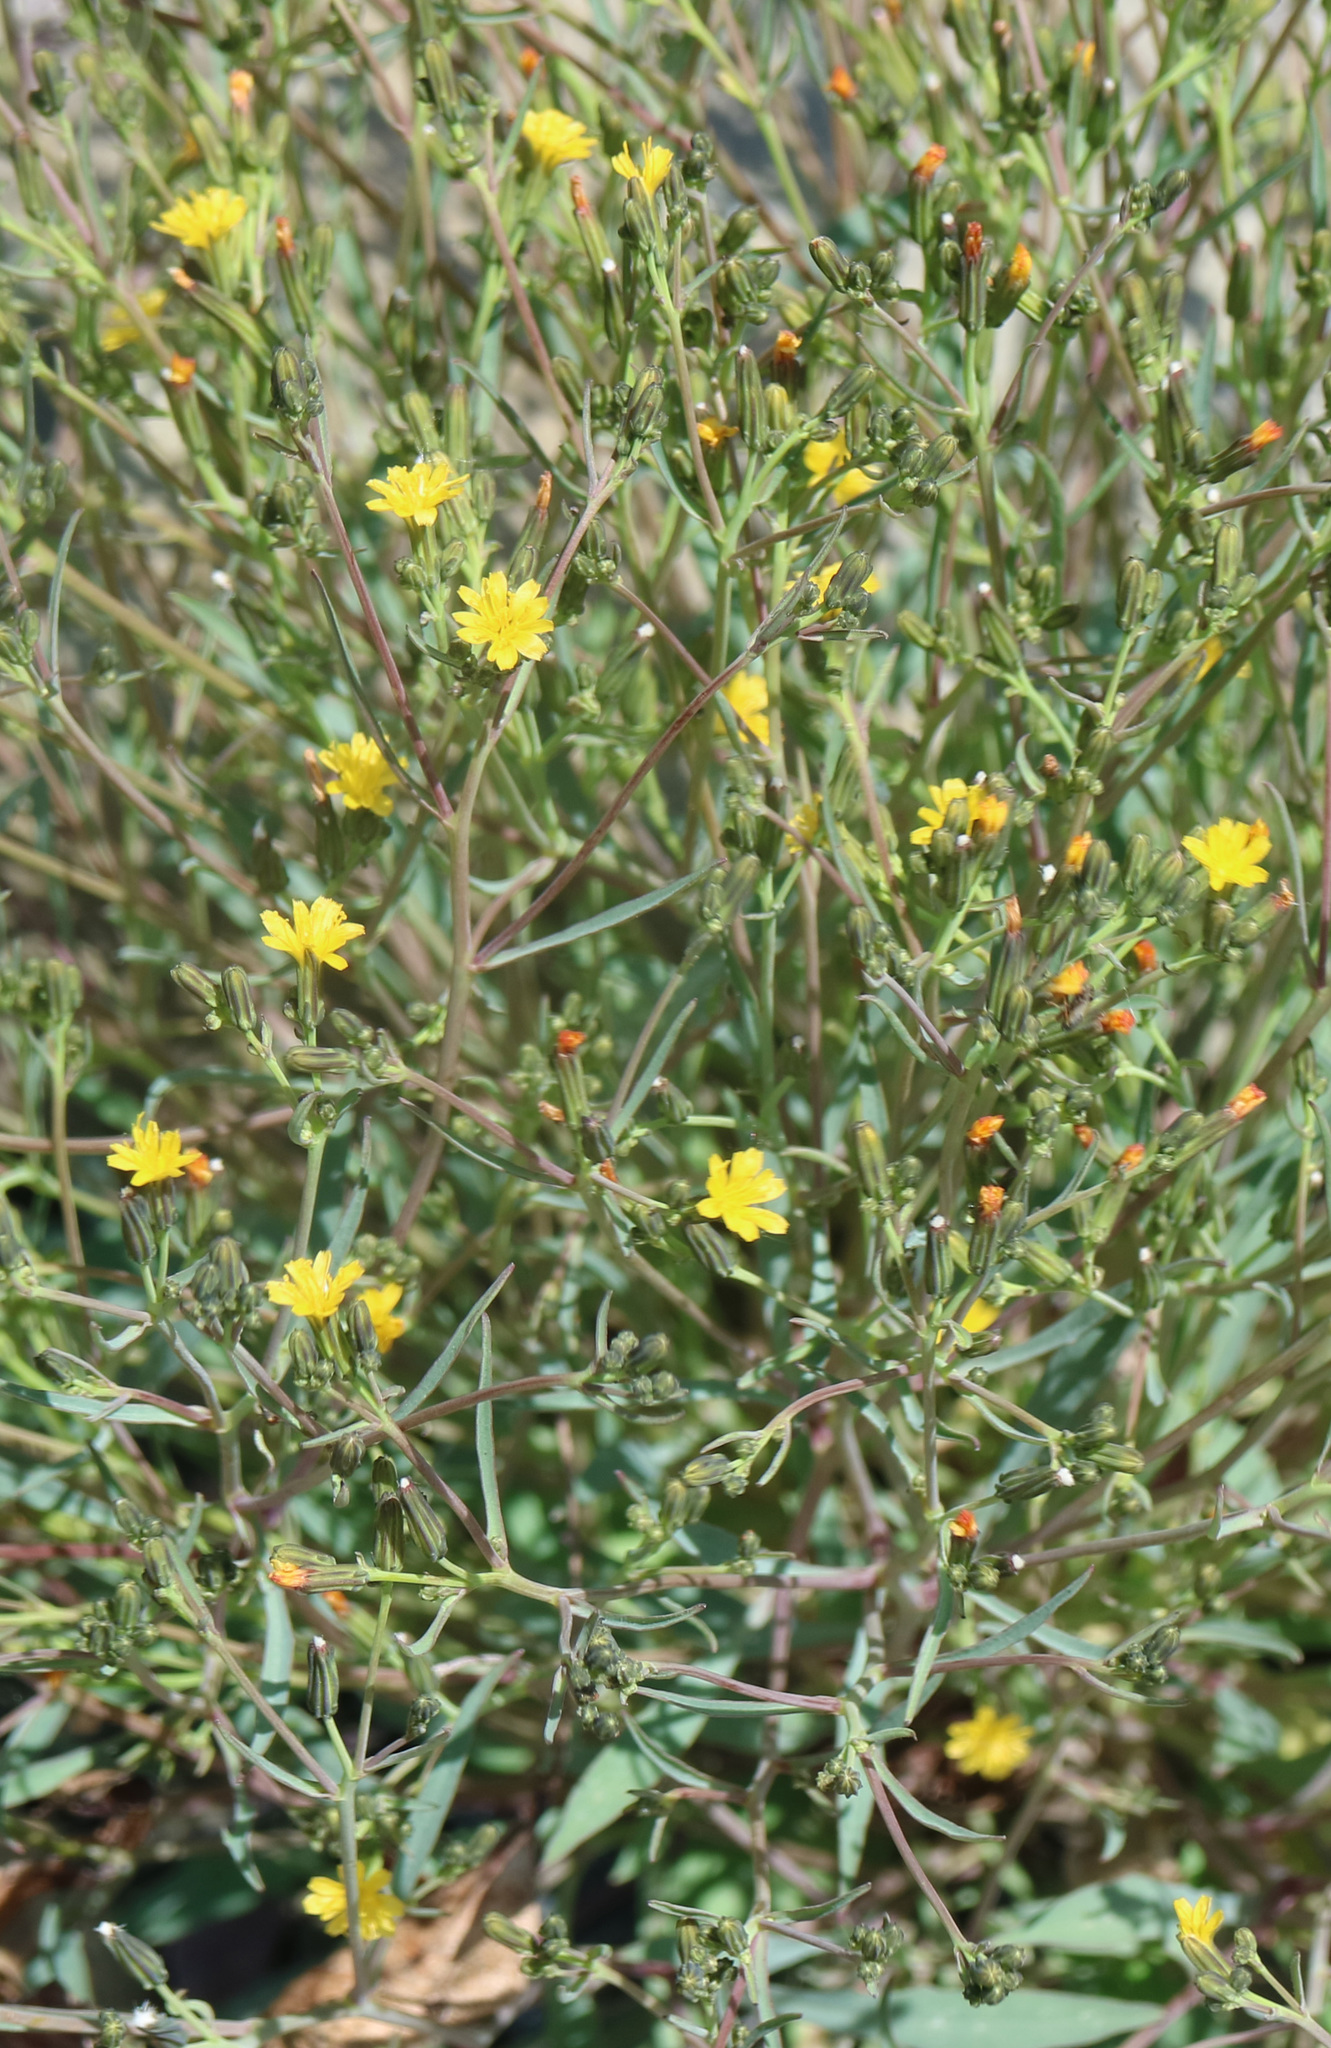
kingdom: Plantae
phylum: Tracheophyta
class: Magnoliopsida
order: Asterales
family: Asteraceae
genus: Askellia
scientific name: Askellia elegans
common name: Elegant hawksbeard
